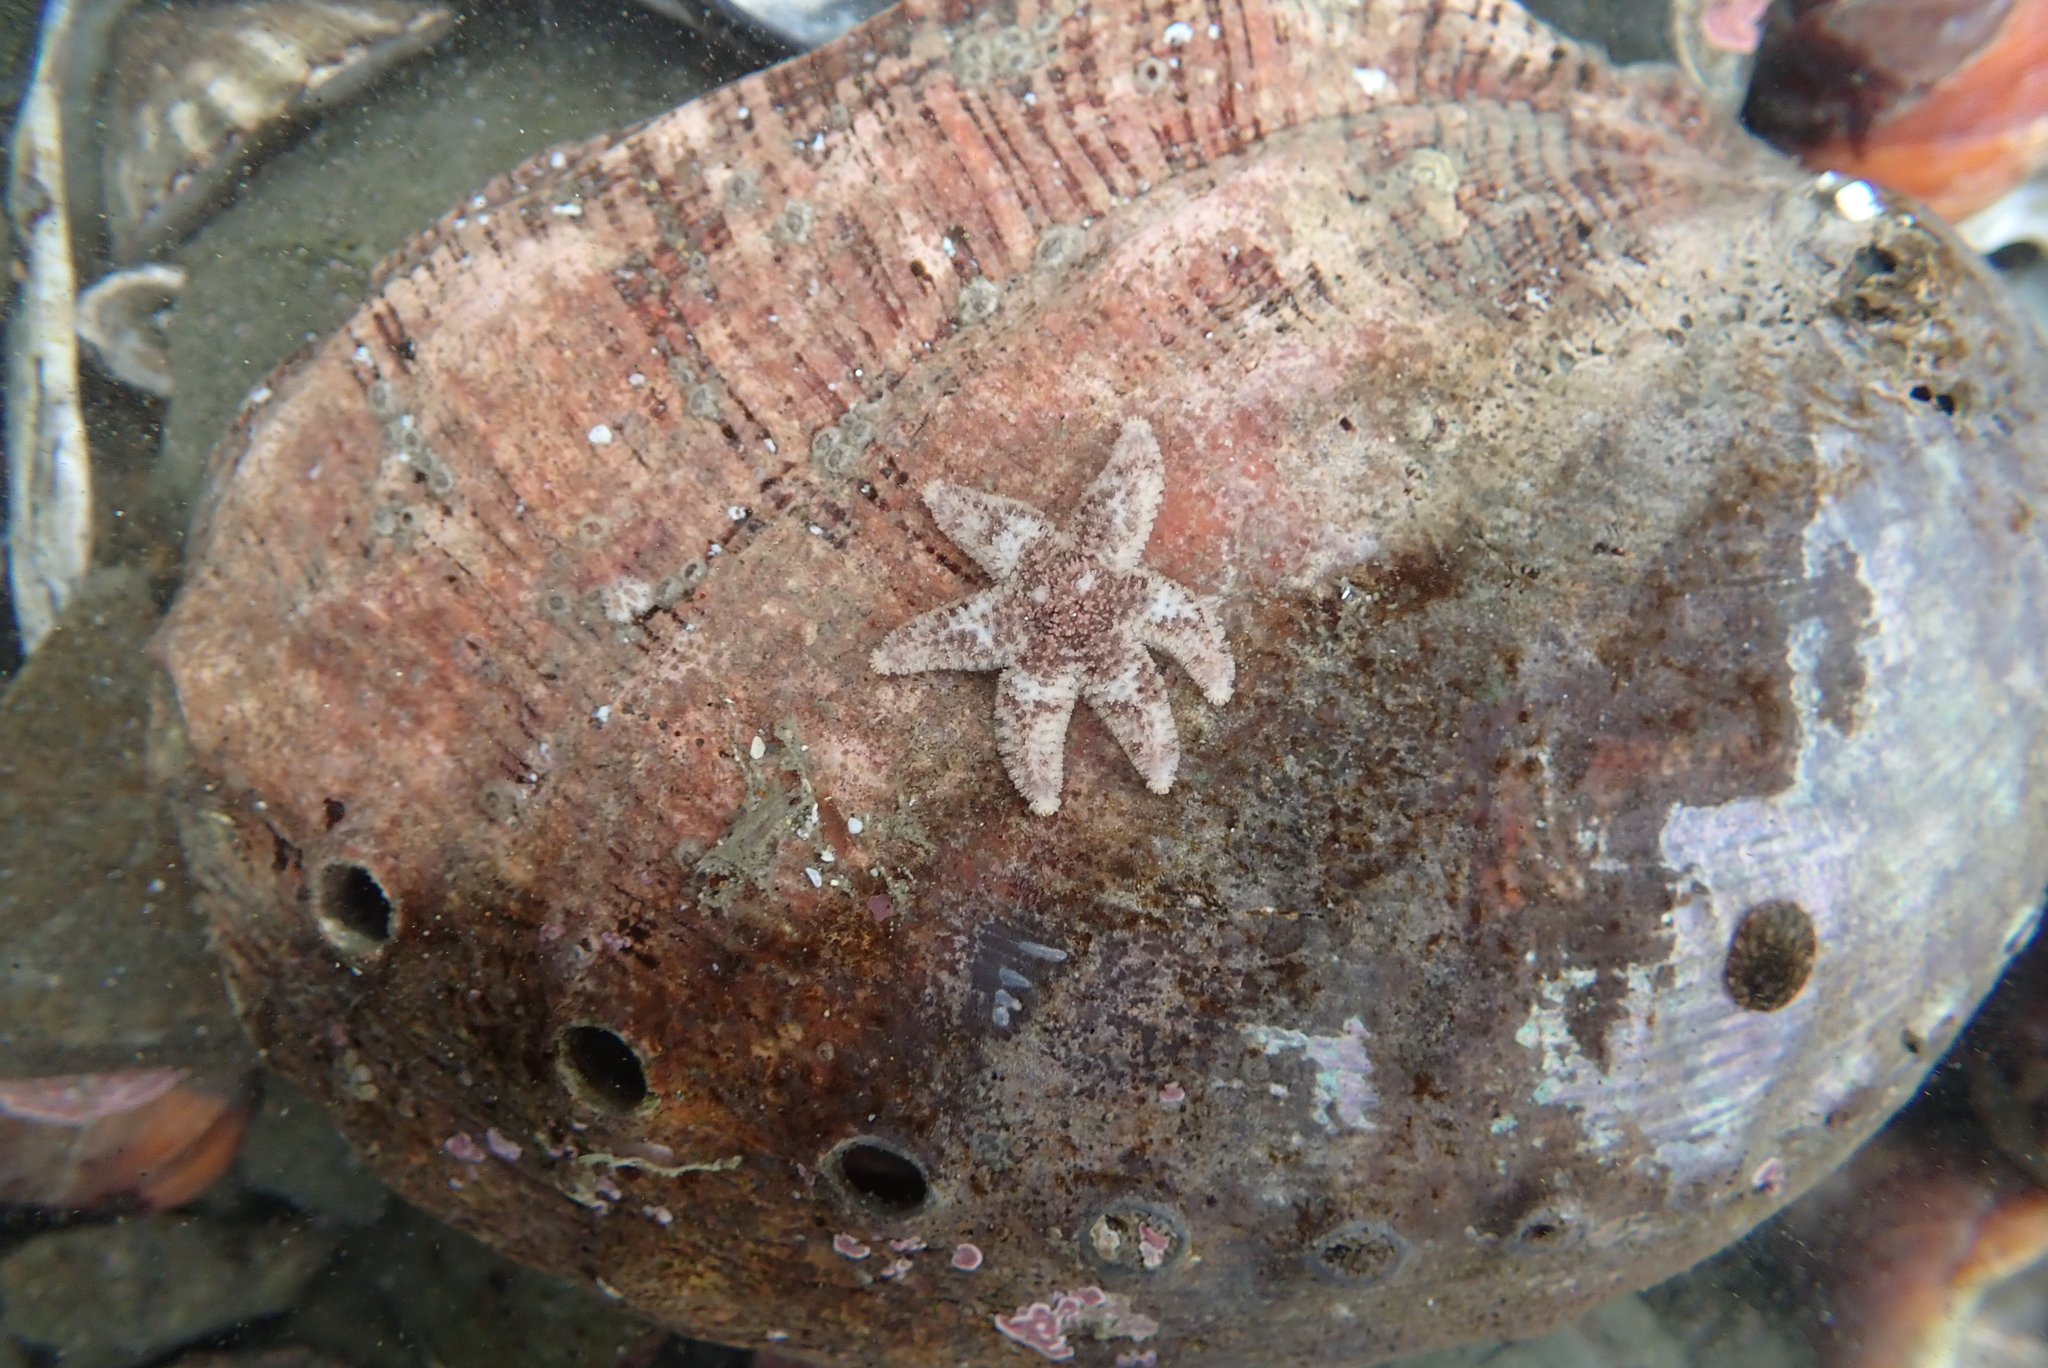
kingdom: Animalia
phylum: Echinodermata
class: Asteroidea
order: Forcipulatida
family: Asteriidae
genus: Leptasterias
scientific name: Leptasterias hexactis
